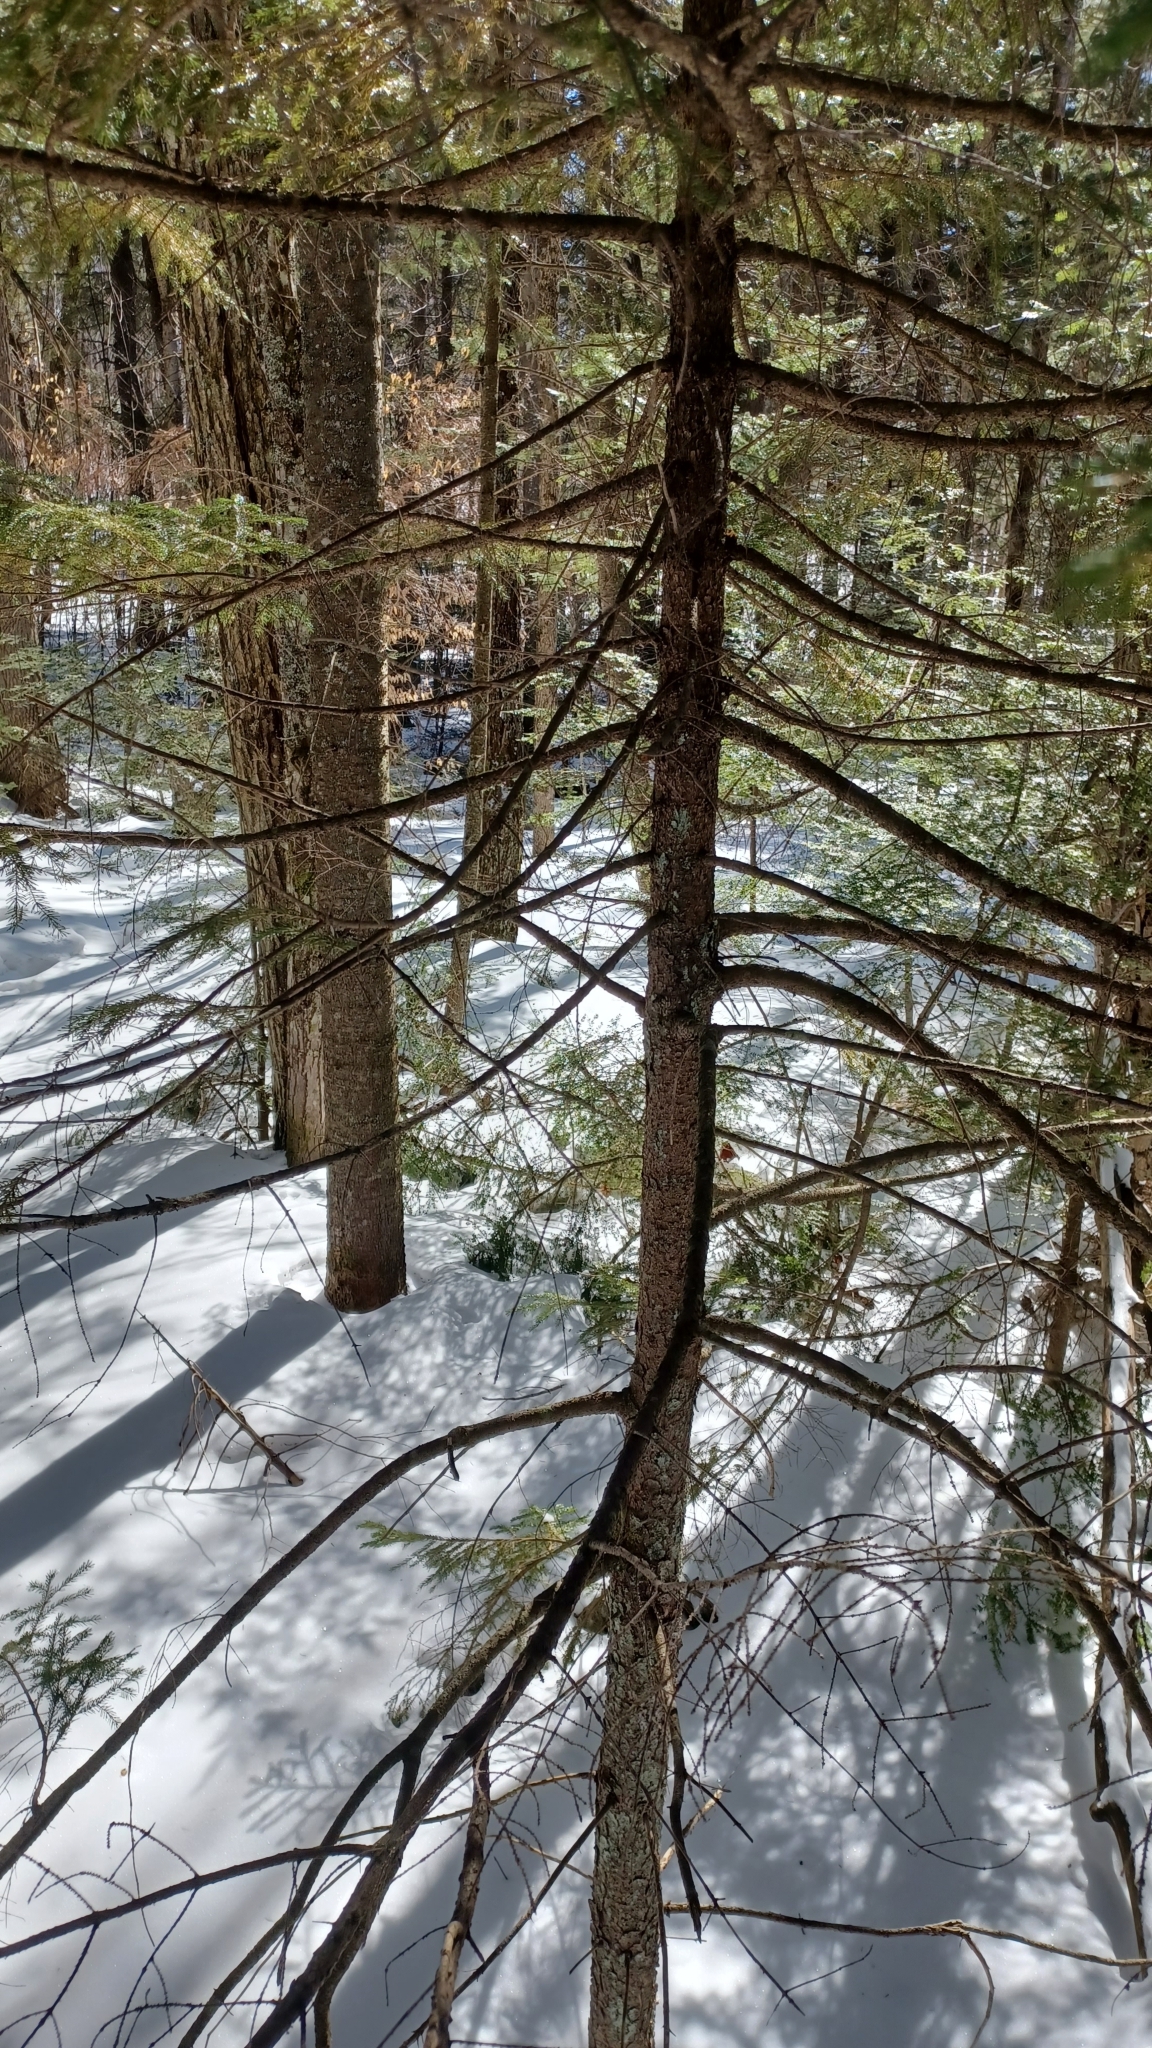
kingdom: Plantae
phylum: Tracheophyta
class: Pinopsida
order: Pinales
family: Pinaceae
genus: Picea
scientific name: Picea rubens
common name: Red spruce
